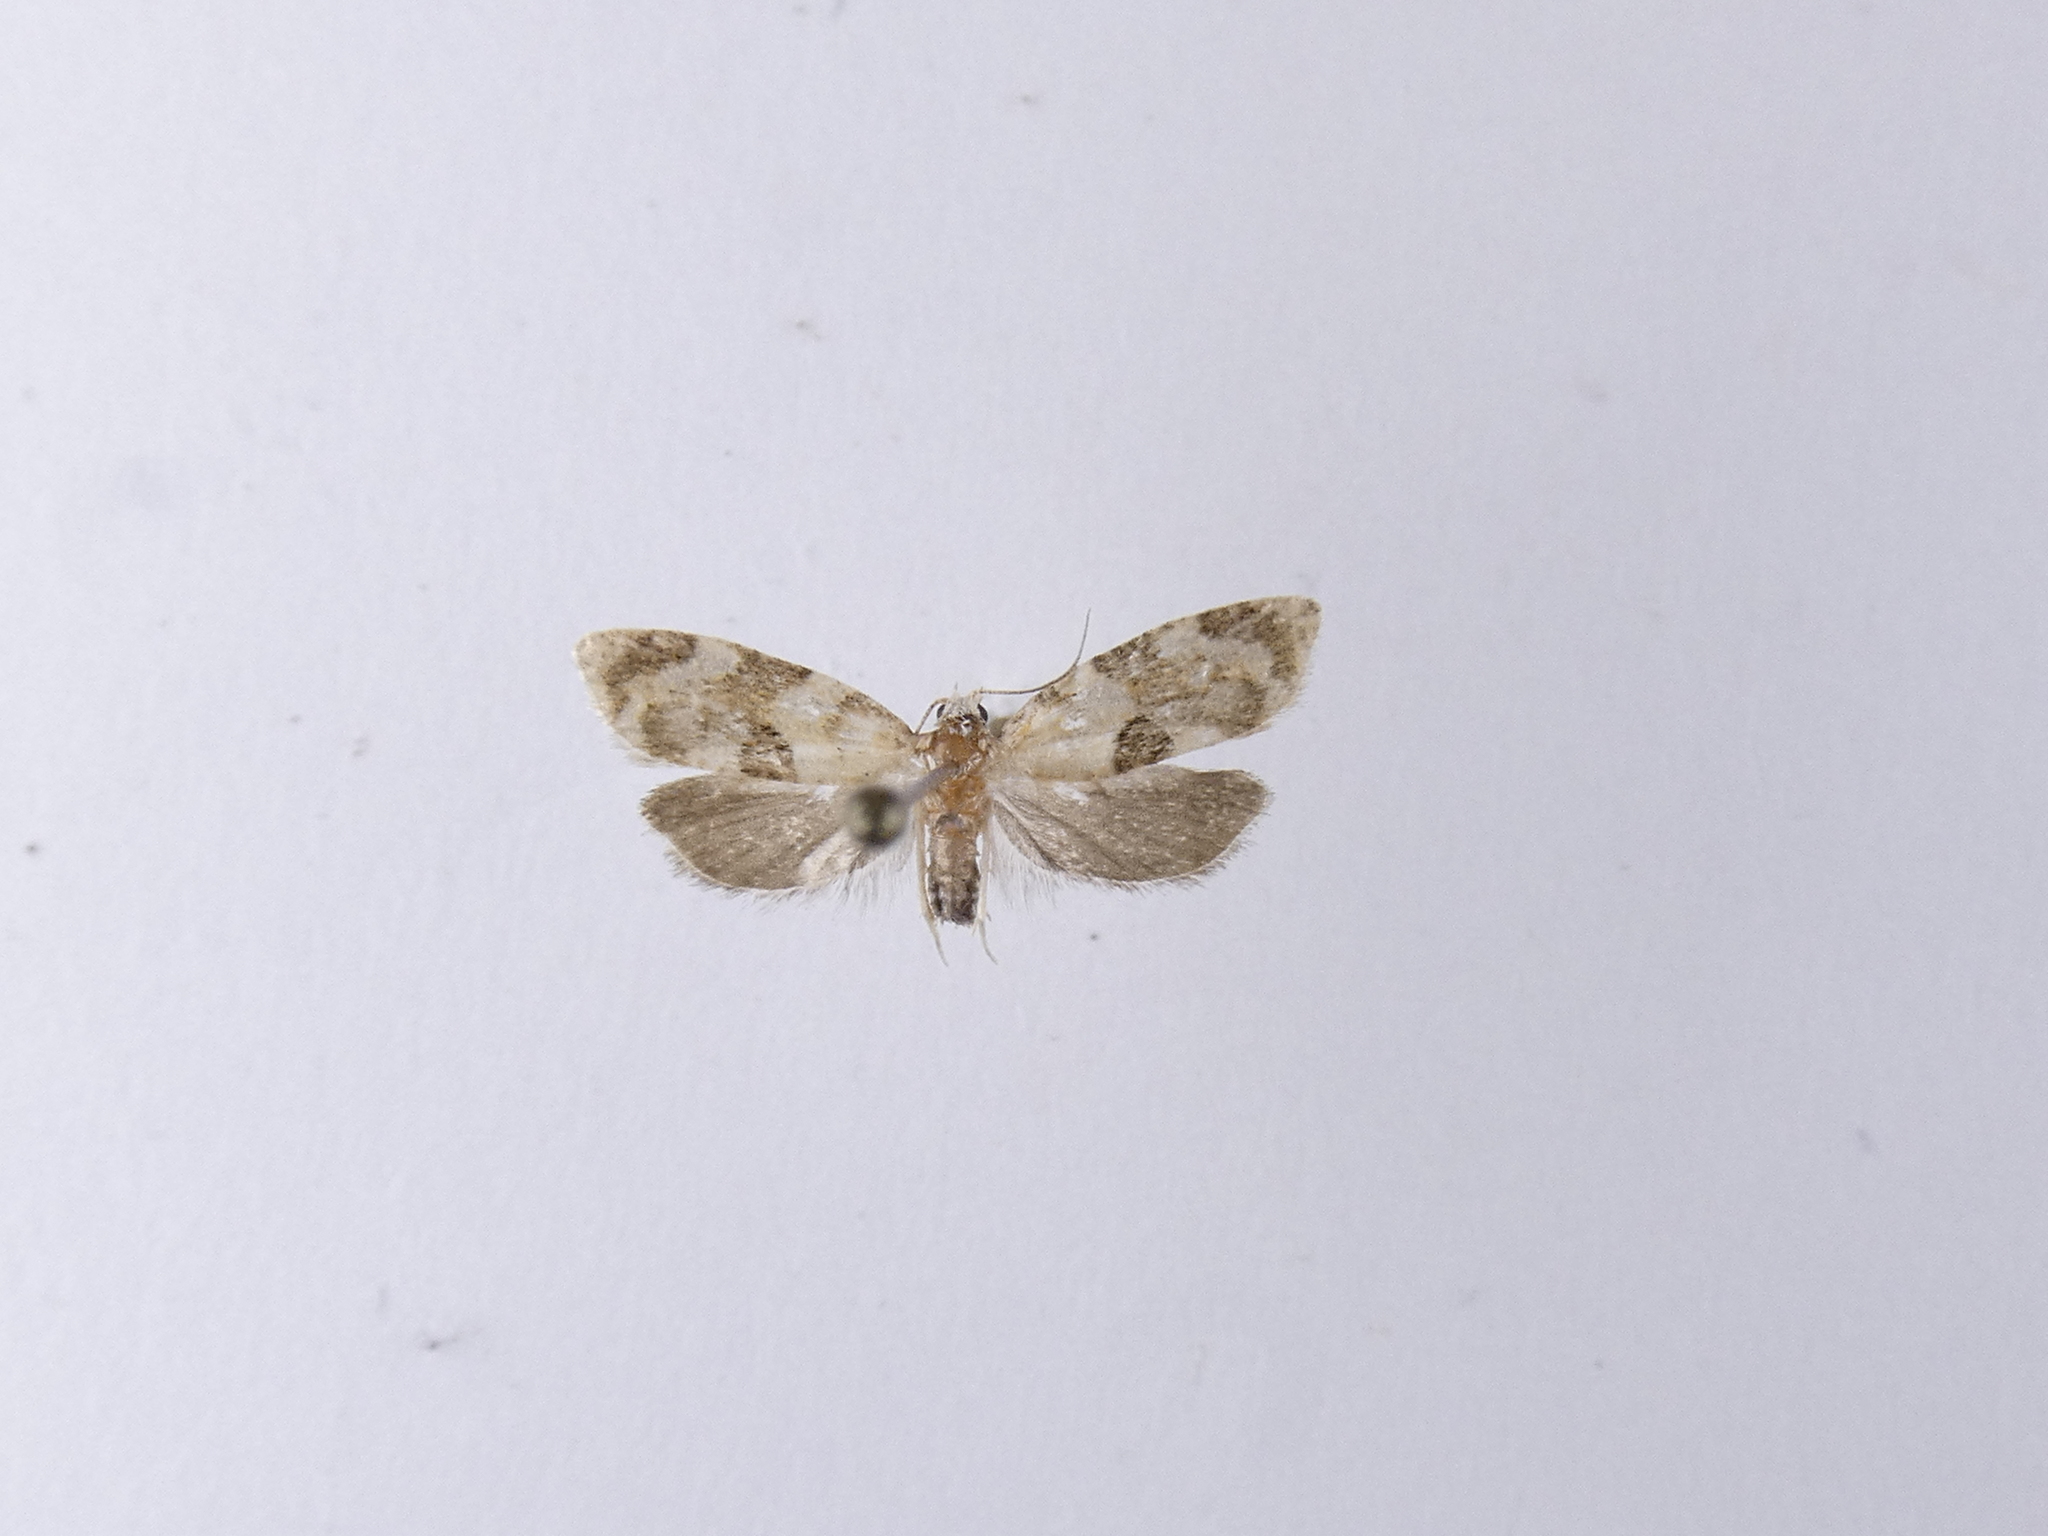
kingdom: Animalia
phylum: Arthropoda
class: Insecta
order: Lepidoptera
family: Tortricidae
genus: Dipterina
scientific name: Dipterina imbriferana
